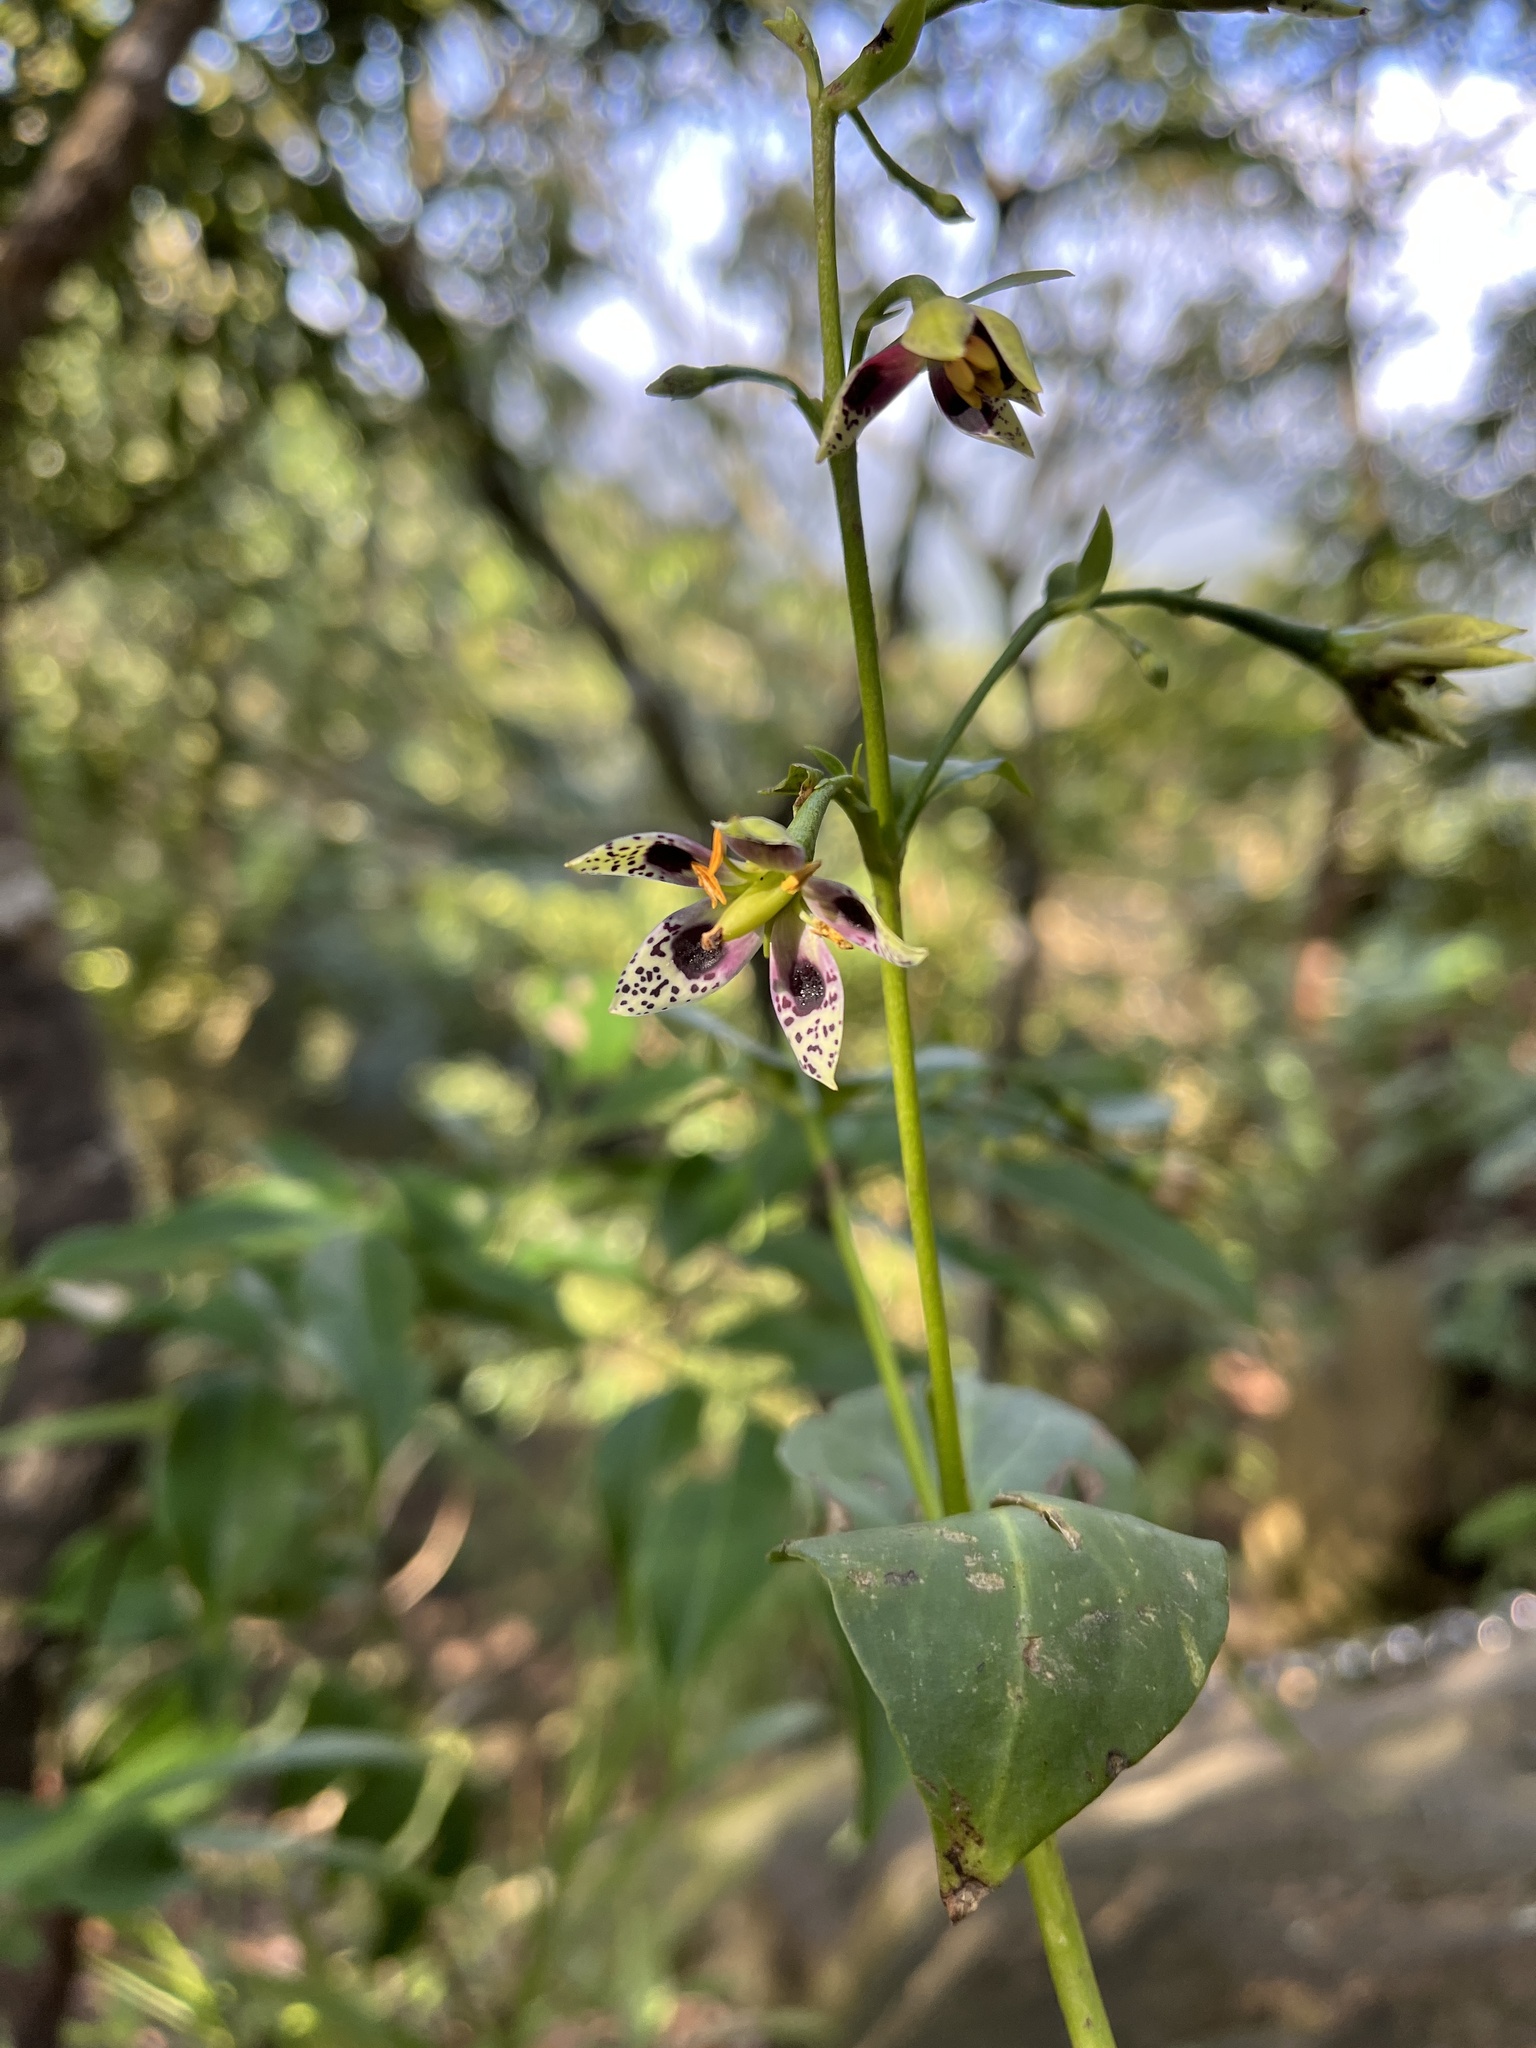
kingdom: Plantae
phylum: Tracheophyta
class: Magnoliopsida
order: Gentianales
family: Gentianaceae
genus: Swertia
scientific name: Swertia shintenensis
